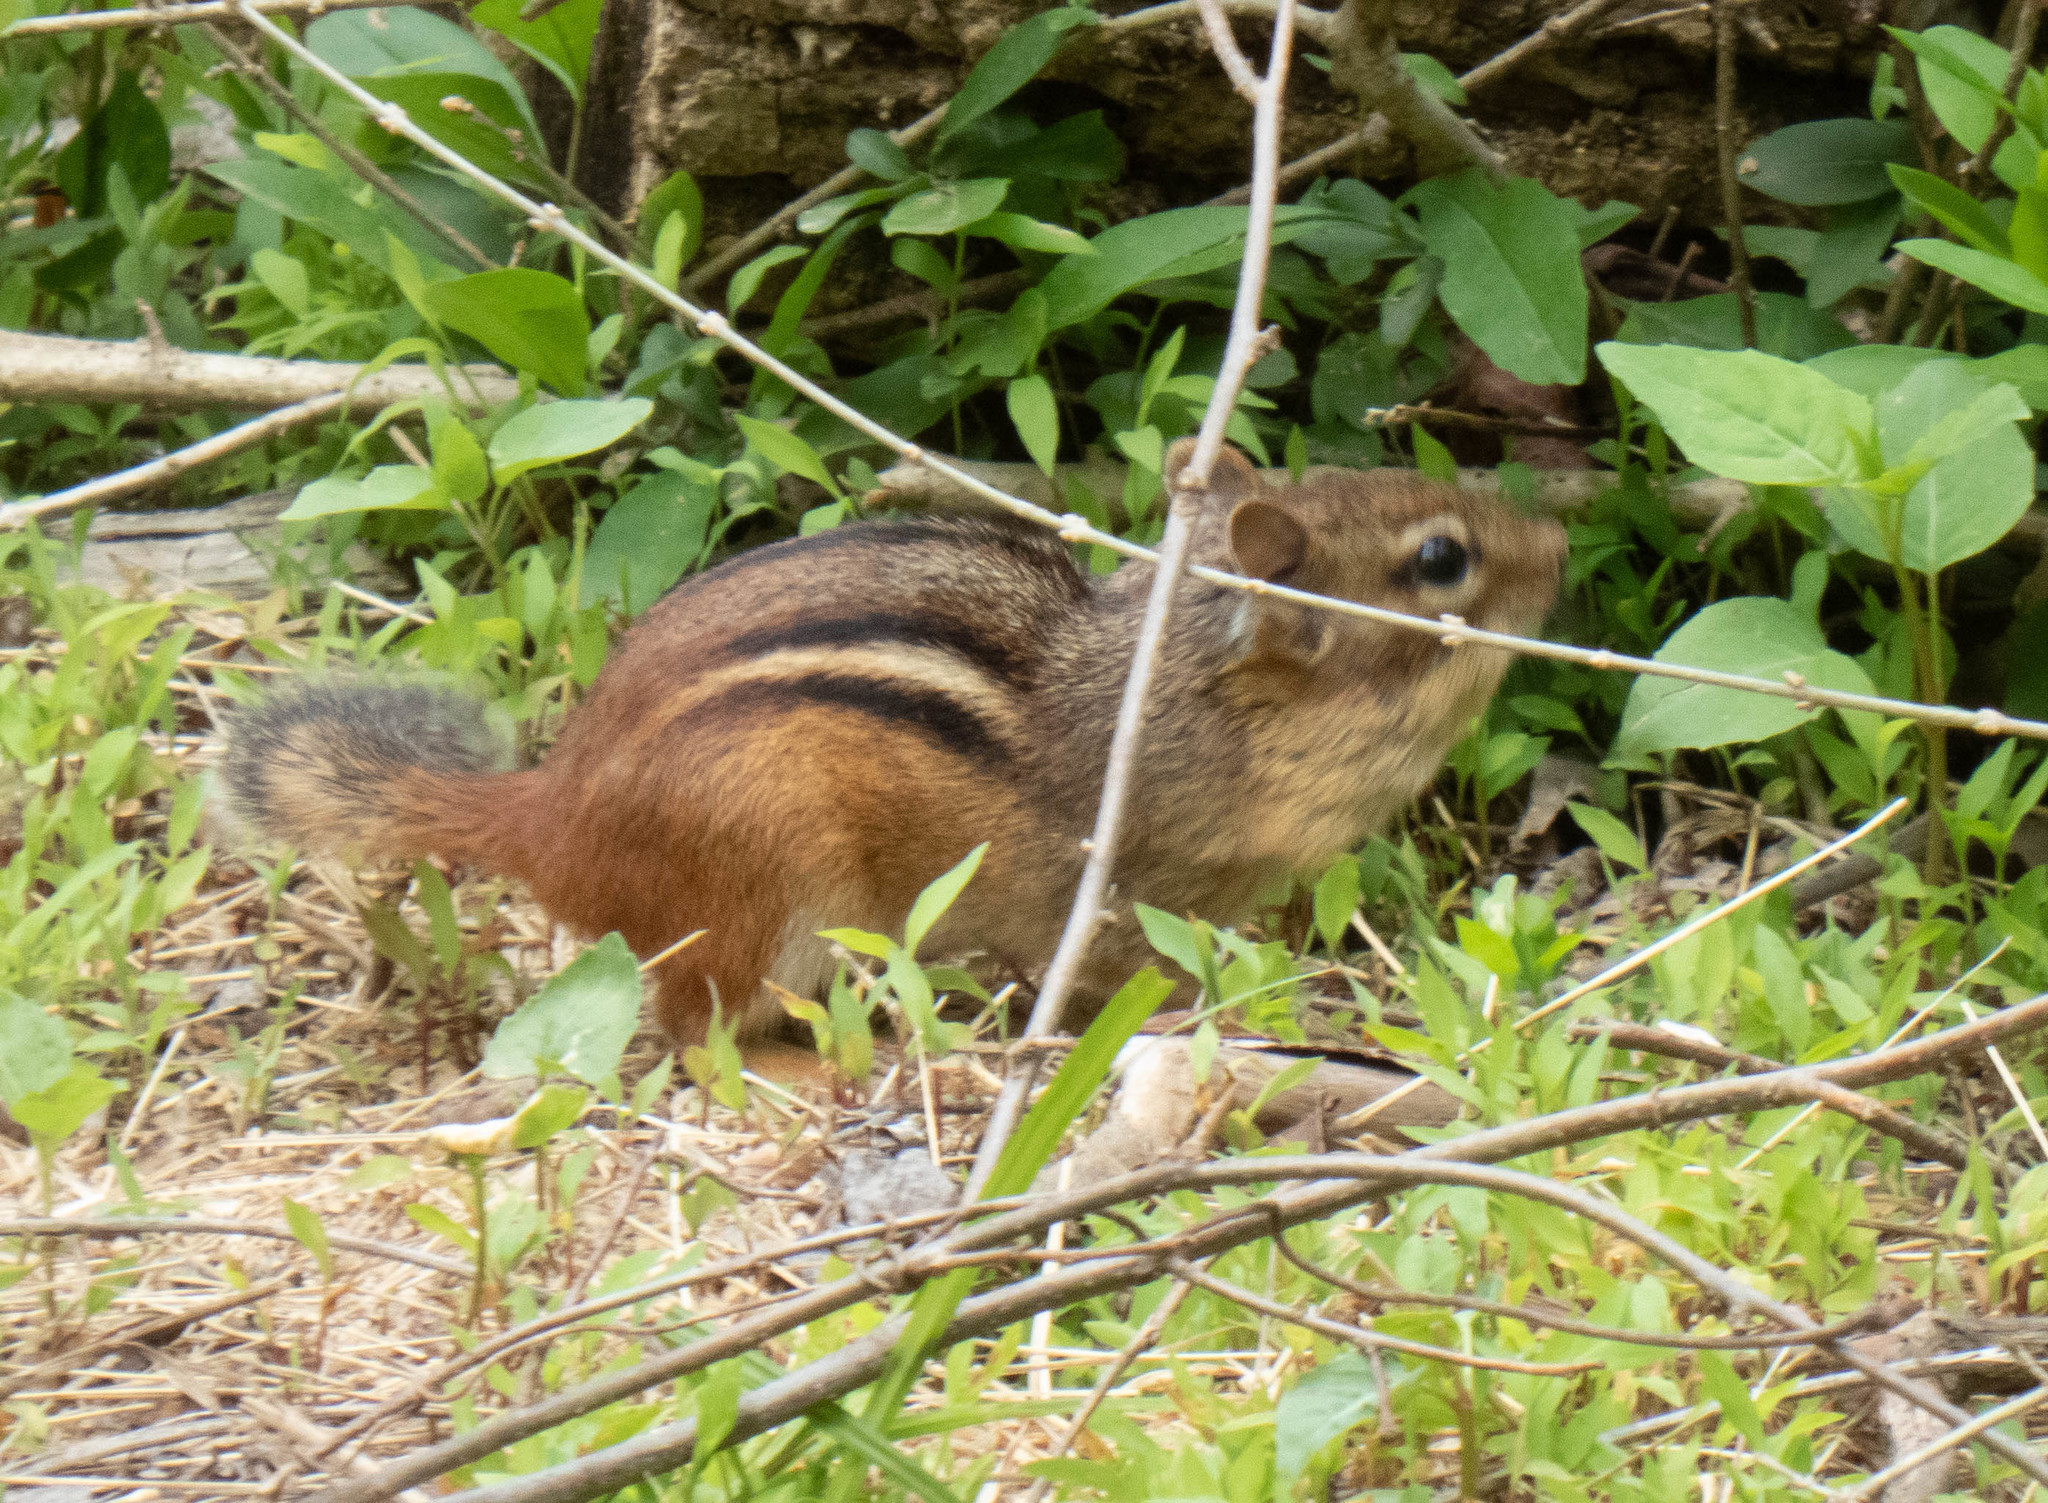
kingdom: Animalia
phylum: Chordata
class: Mammalia
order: Rodentia
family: Sciuridae
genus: Tamias
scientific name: Tamias striatus
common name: Eastern chipmunk
